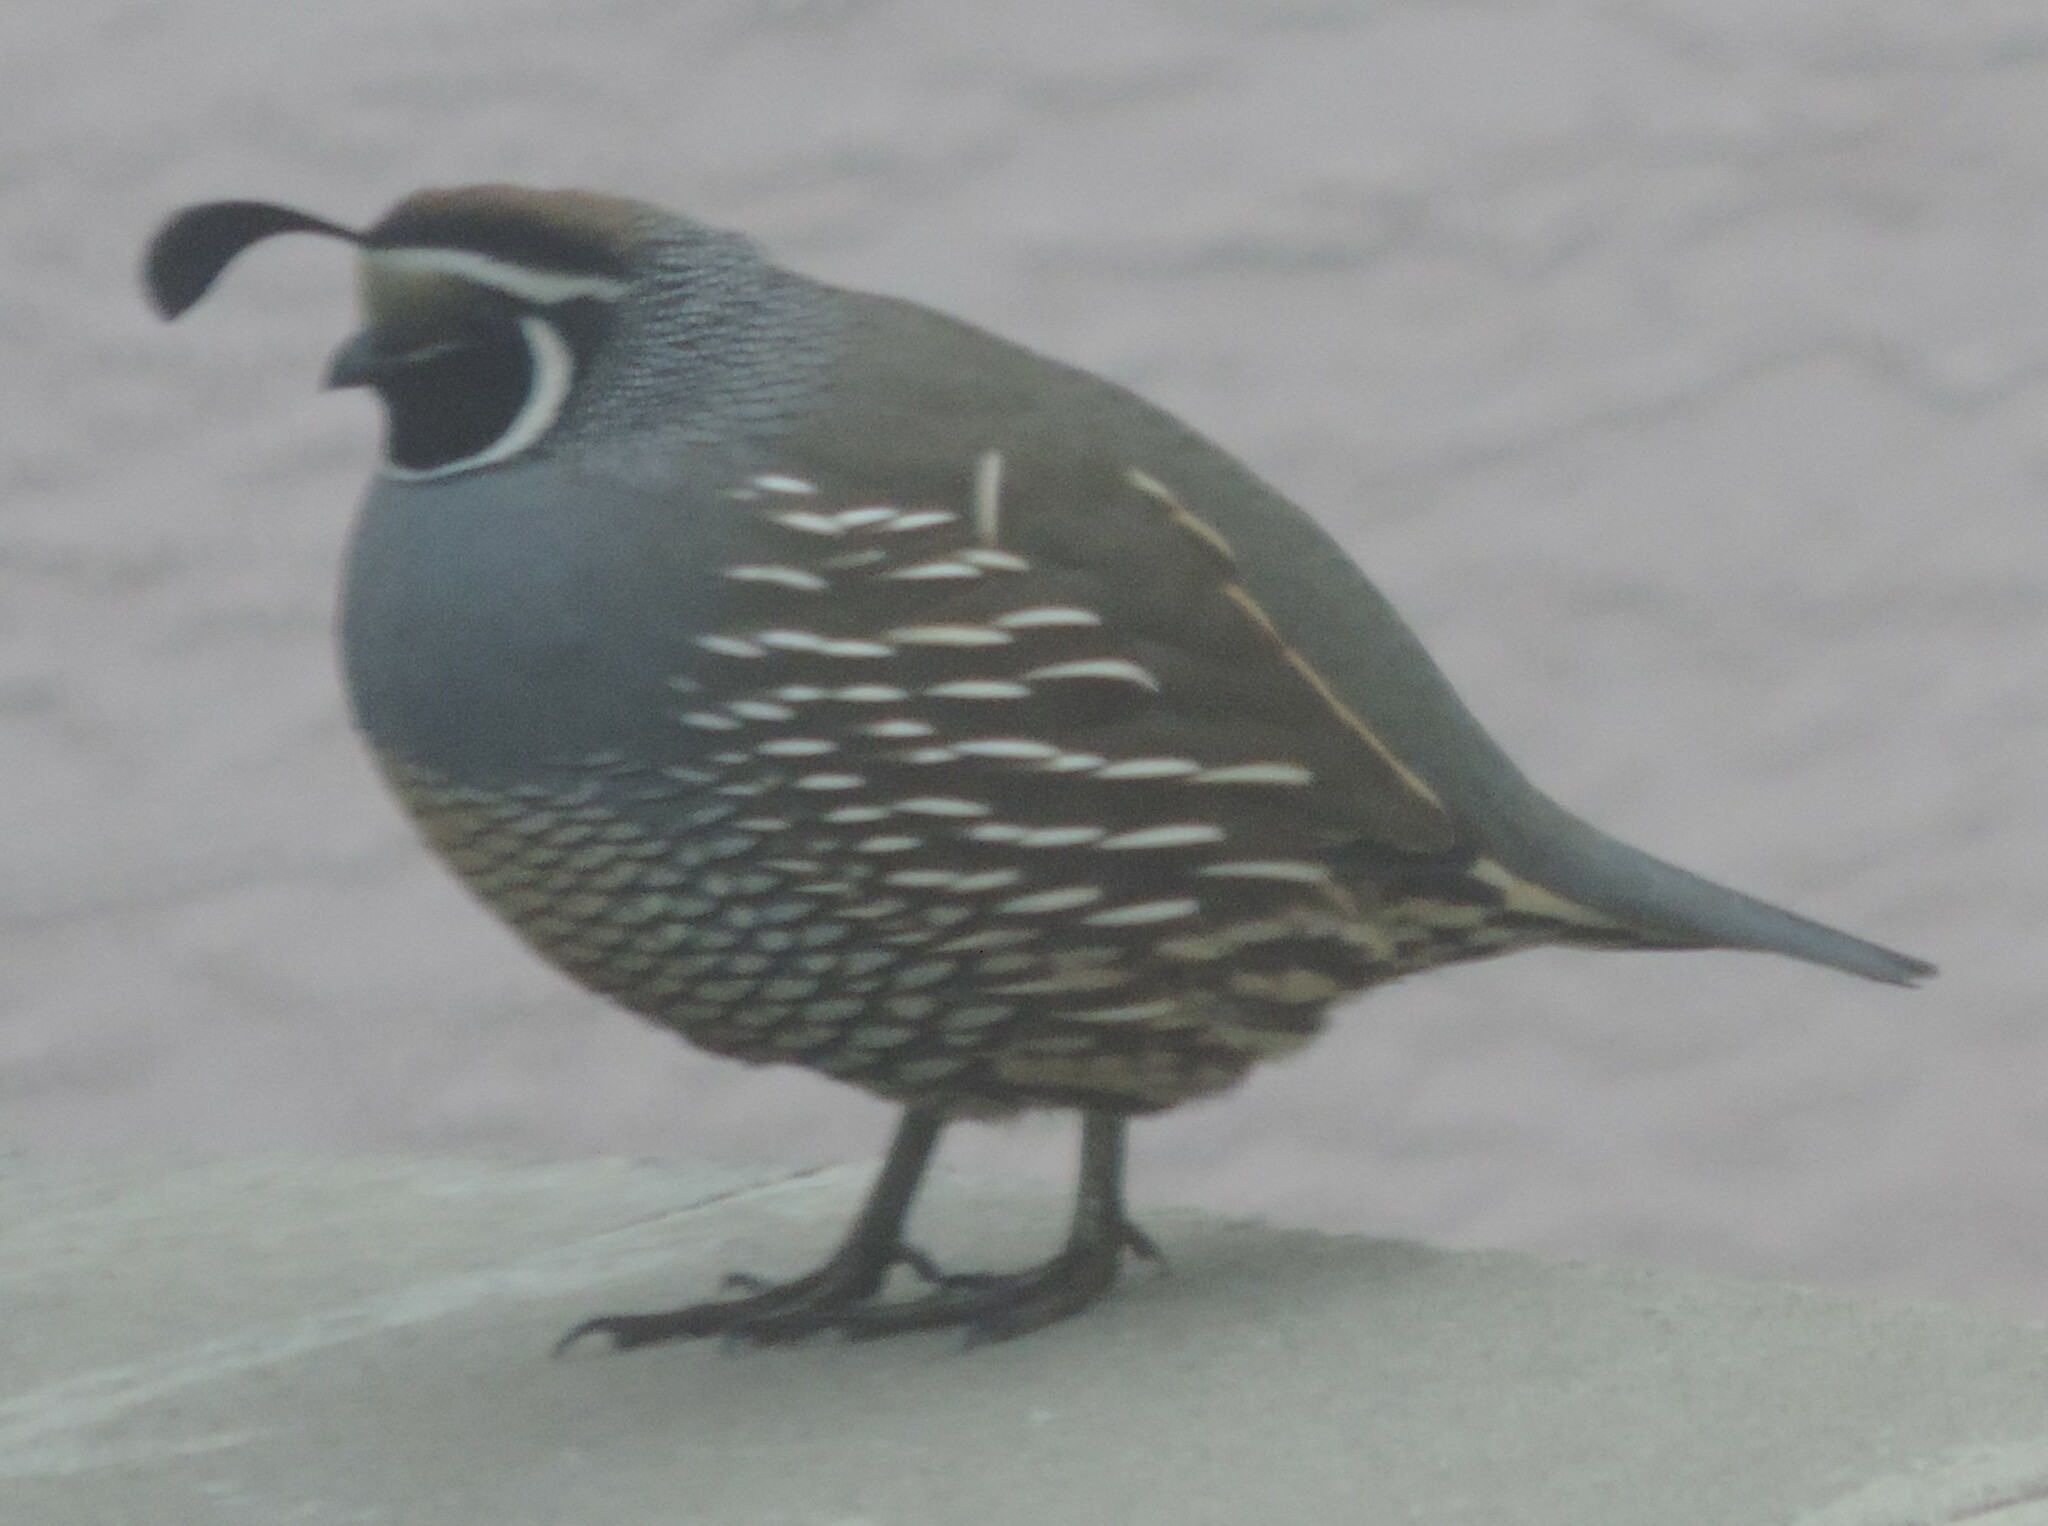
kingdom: Animalia
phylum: Chordata
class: Aves
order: Galliformes
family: Odontophoridae
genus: Callipepla
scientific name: Callipepla californica
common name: California quail
